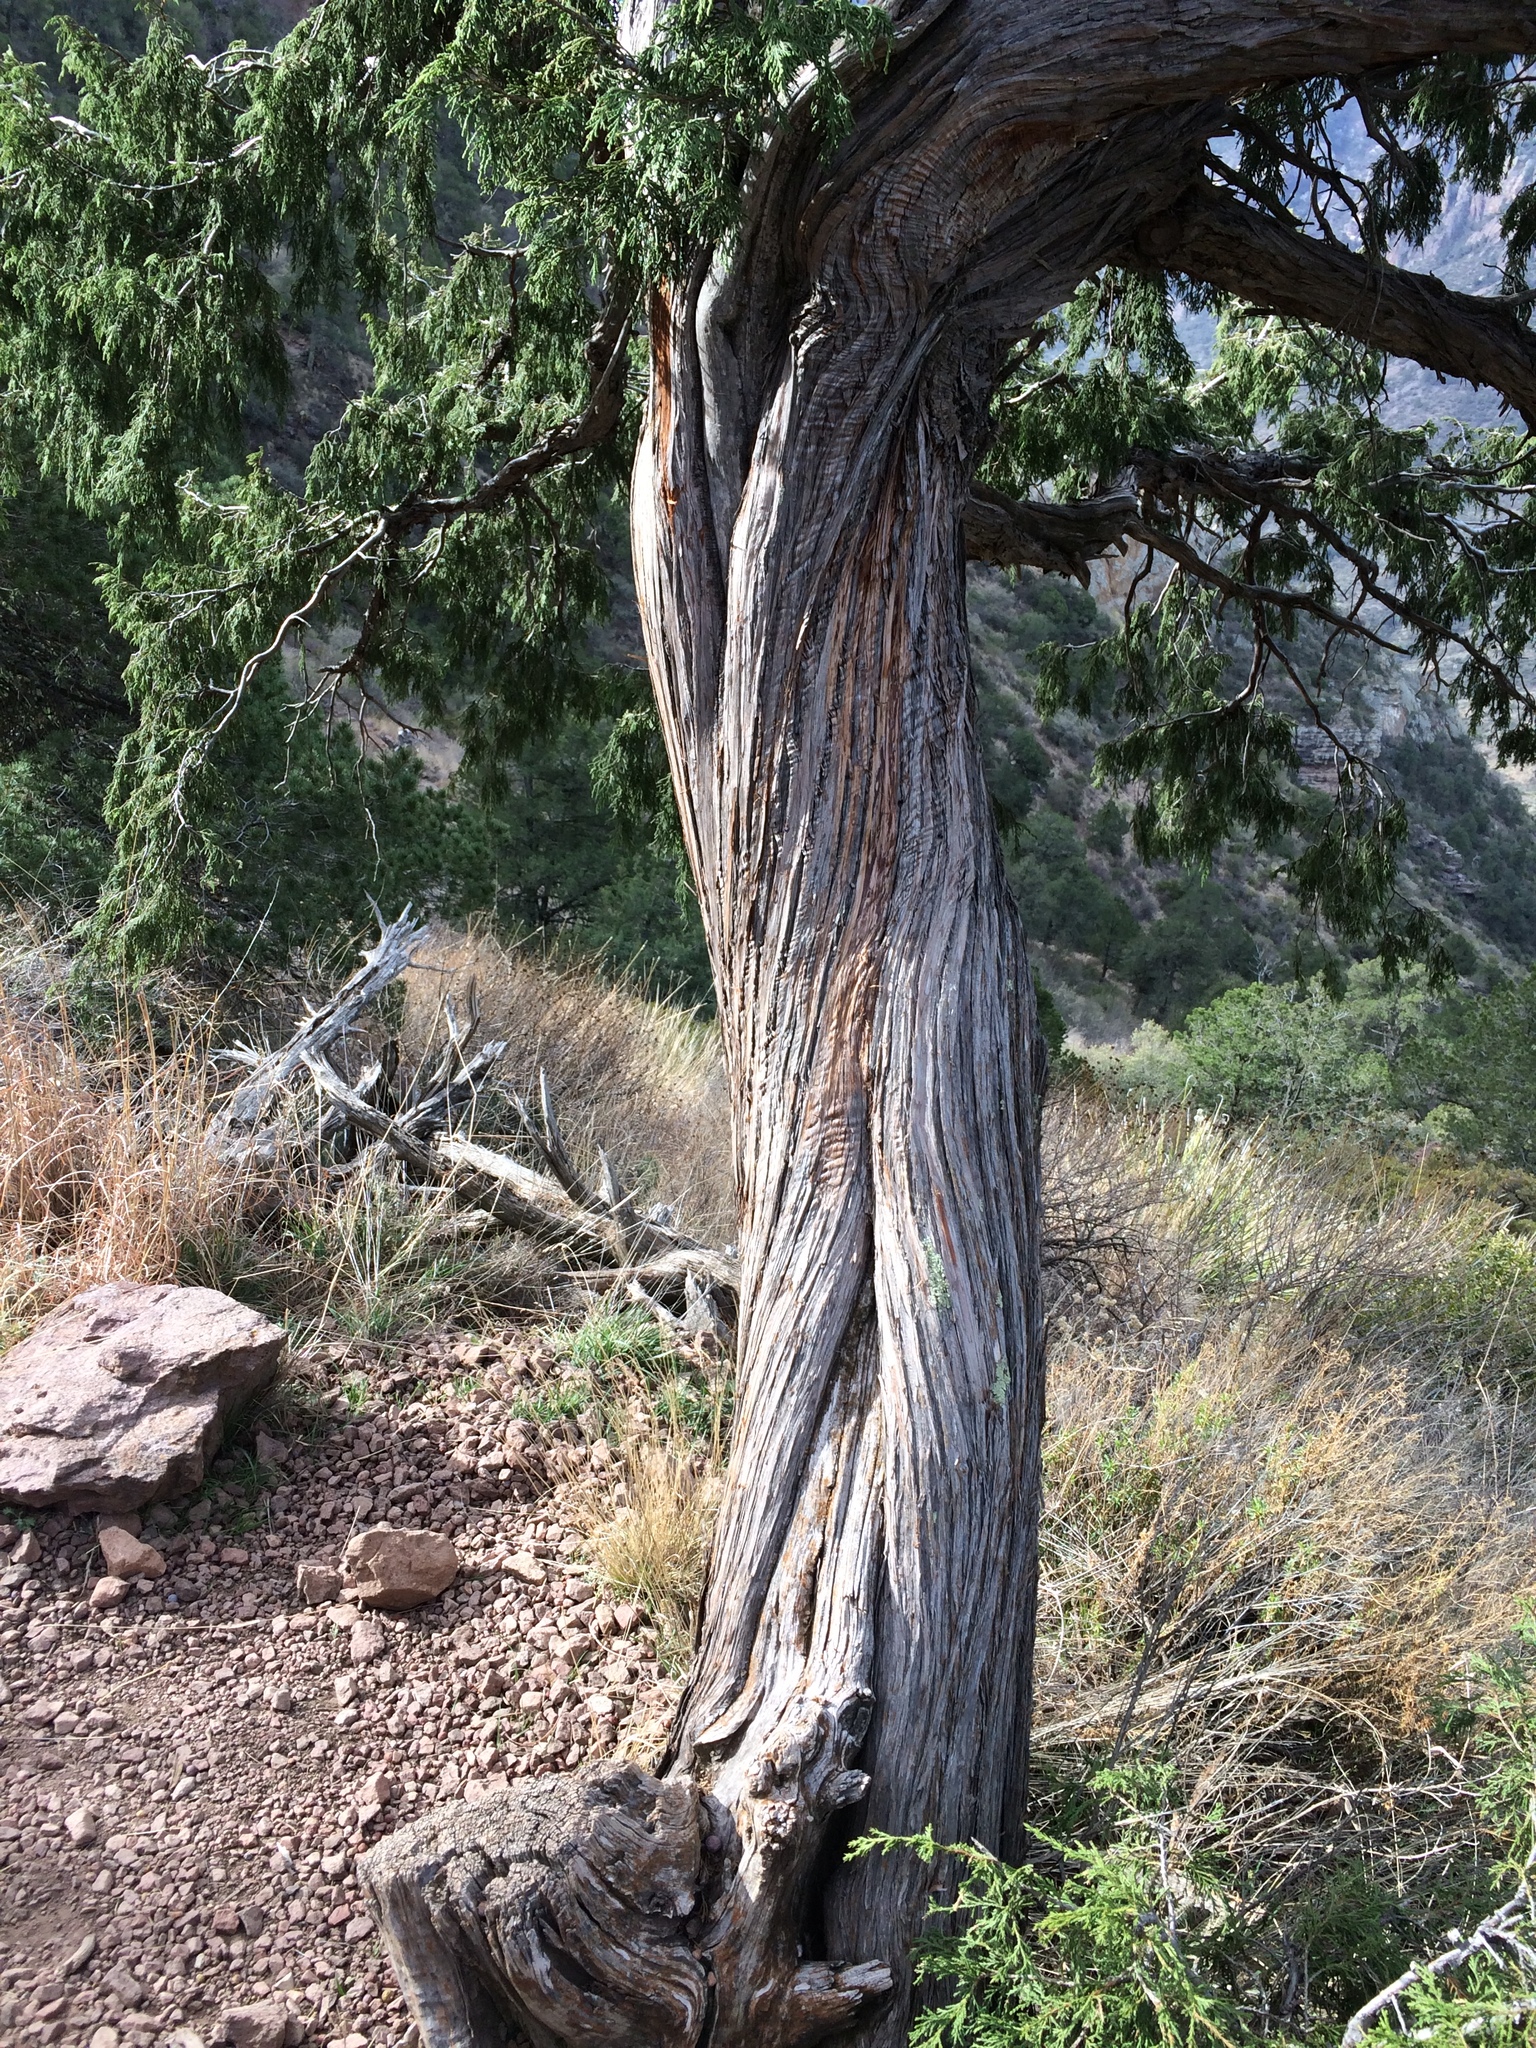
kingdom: Plantae
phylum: Tracheophyta
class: Pinopsida
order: Pinales
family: Cupressaceae
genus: Juniperus
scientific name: Juniperus flaccida
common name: Drooping juniper
